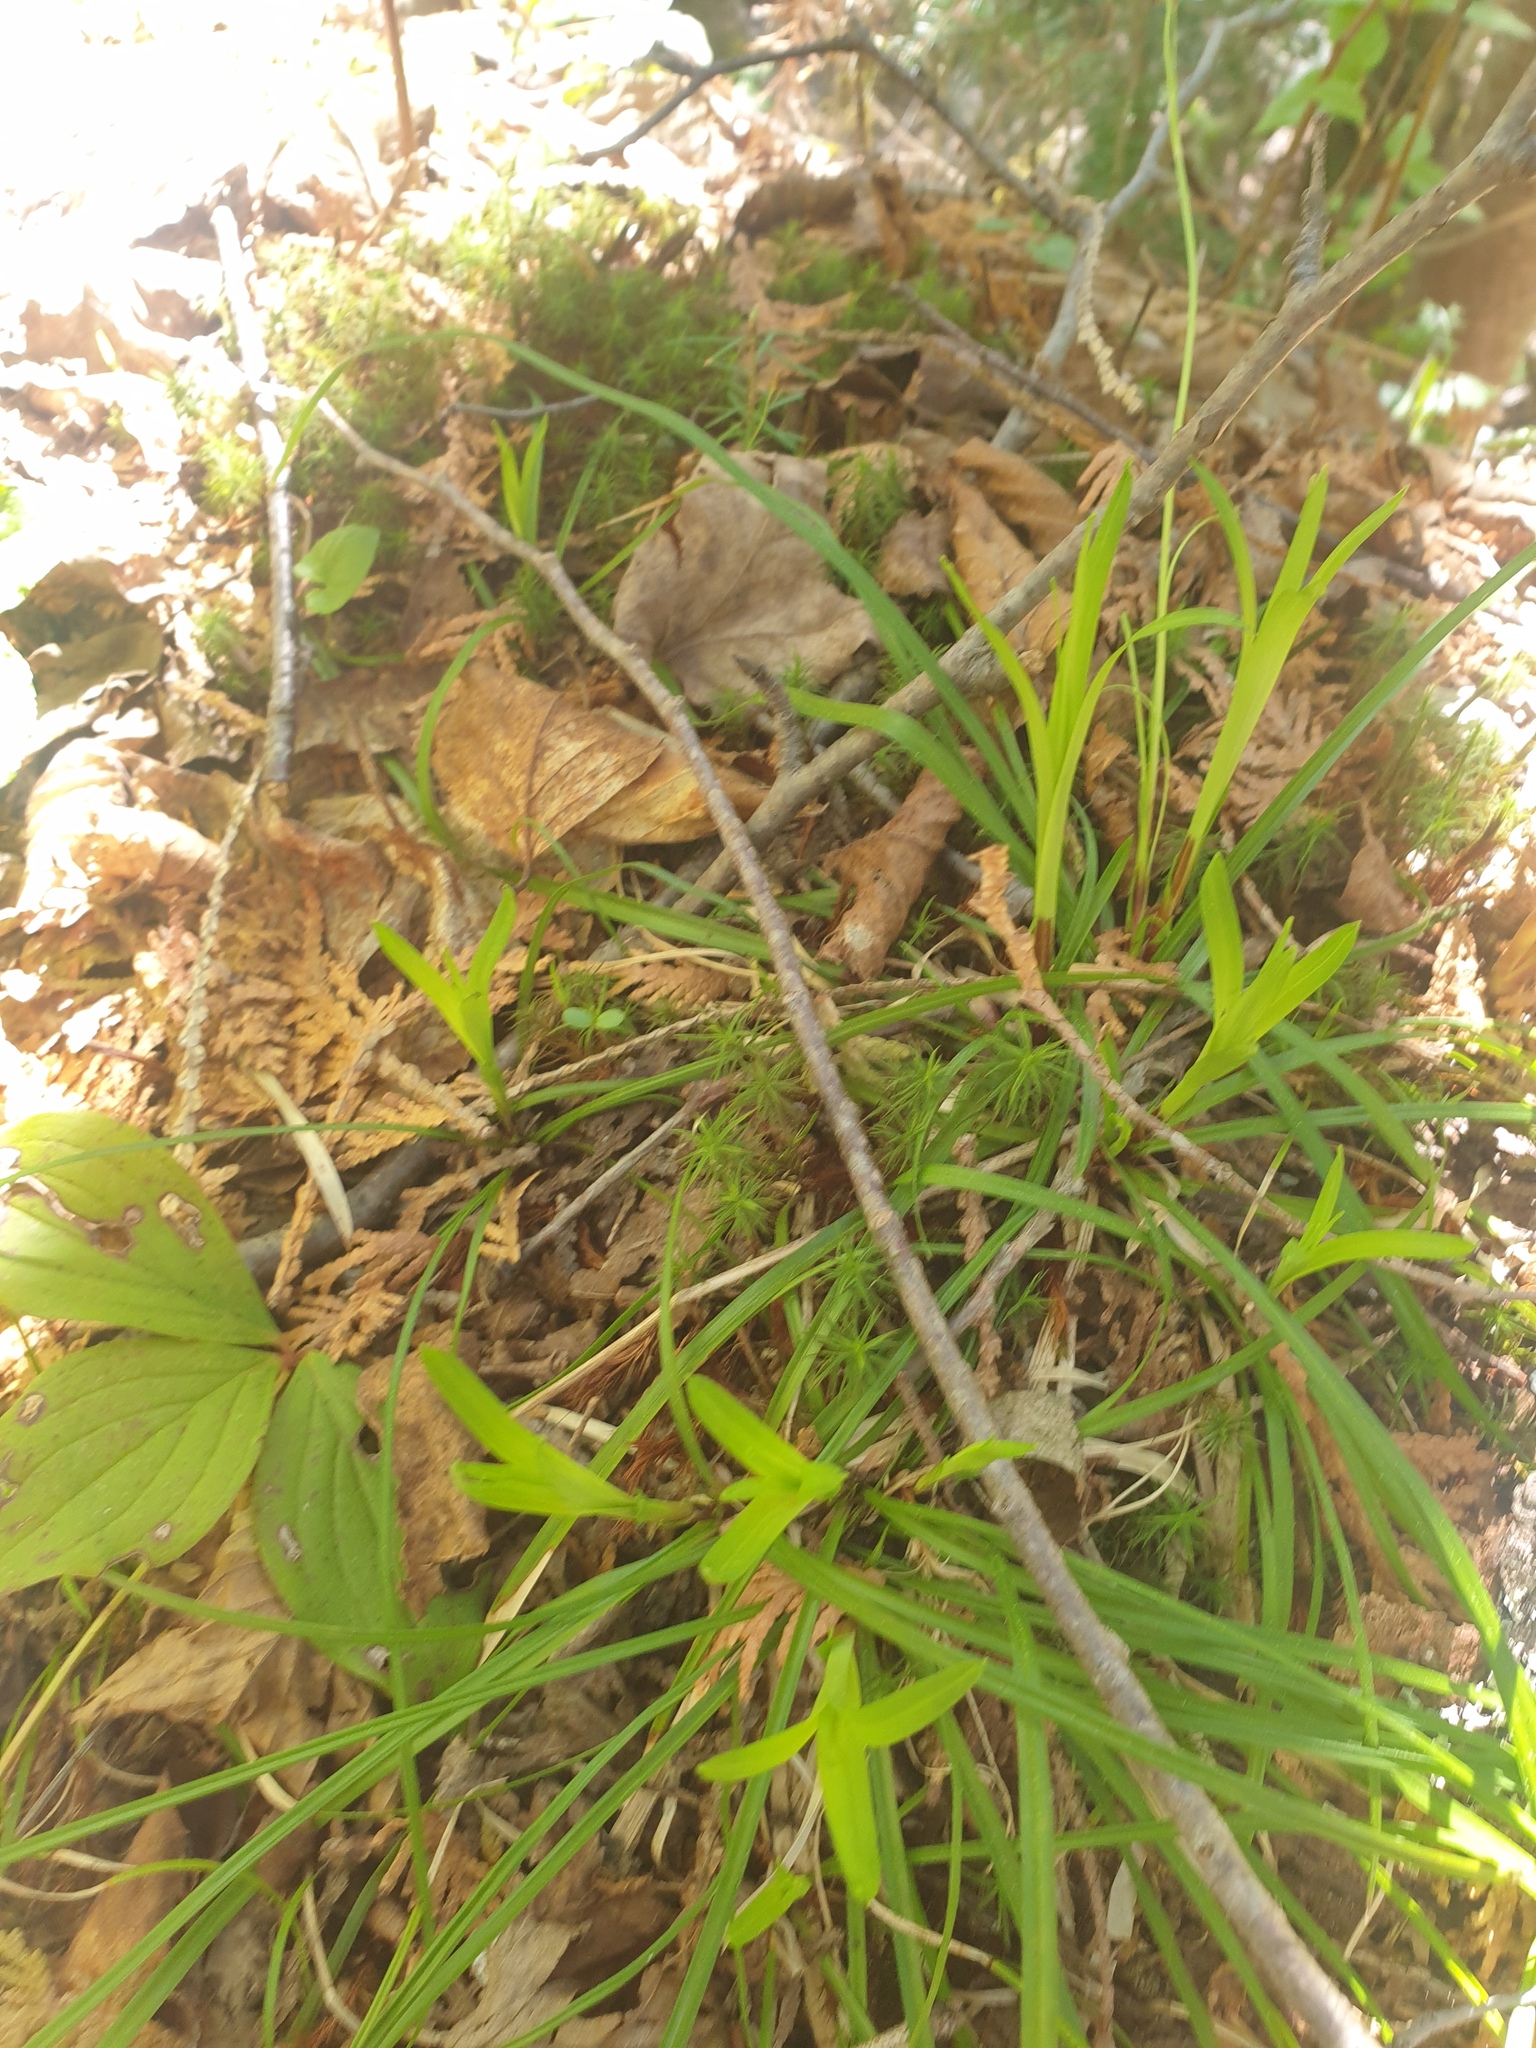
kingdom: Plantae
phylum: Tracheophyta
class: Liliopsida
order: Poales
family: Cyperaceae
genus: Carex
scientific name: Carex pedunculata
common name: Pedunculate sedge
